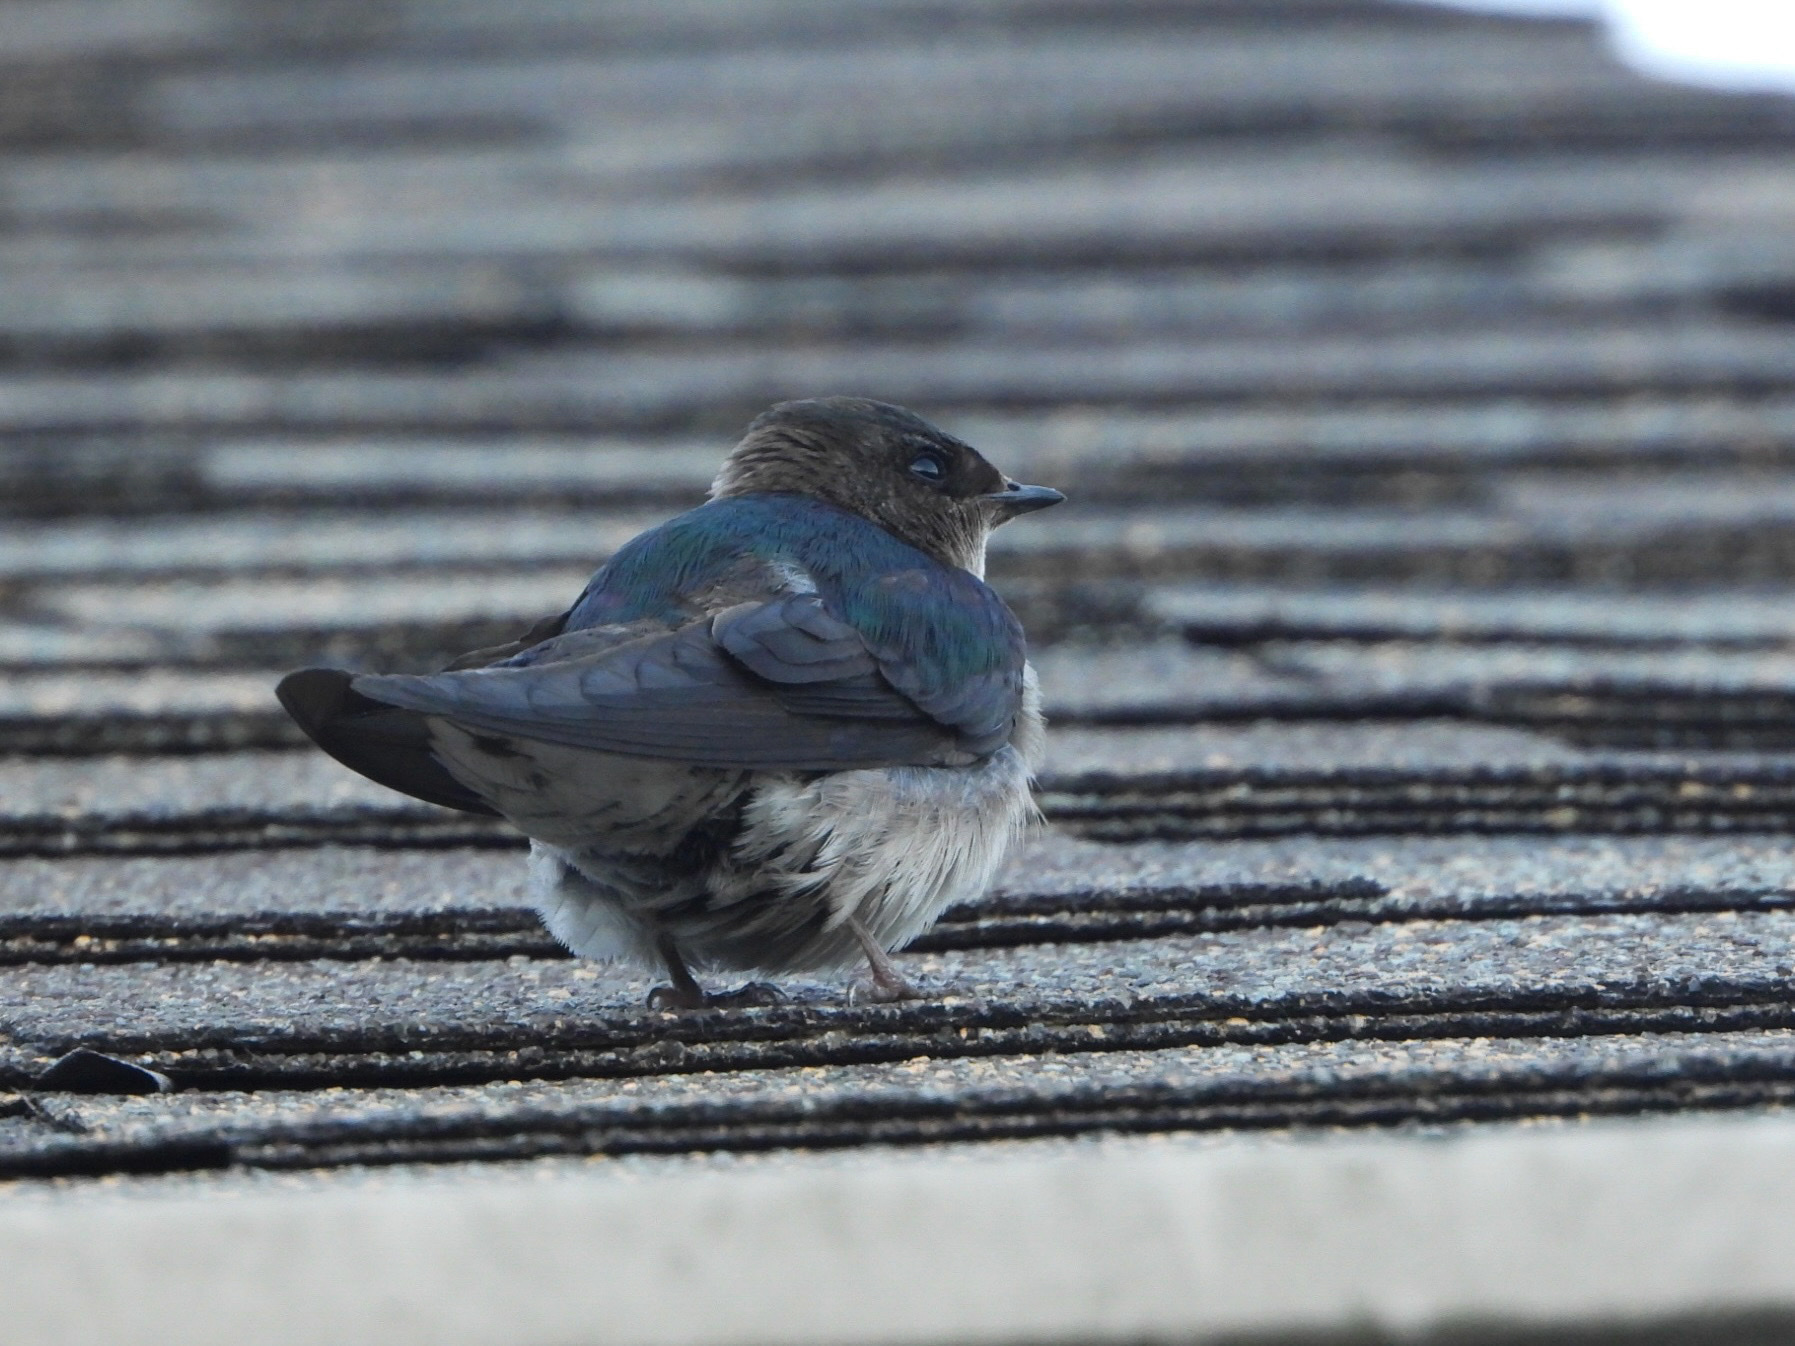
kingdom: Animalia
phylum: Chordata
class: Aves
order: Passeriformes
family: Hirundinidae
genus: Tachycineta
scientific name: Tachycineta thalassina
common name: Violet-green swallow
